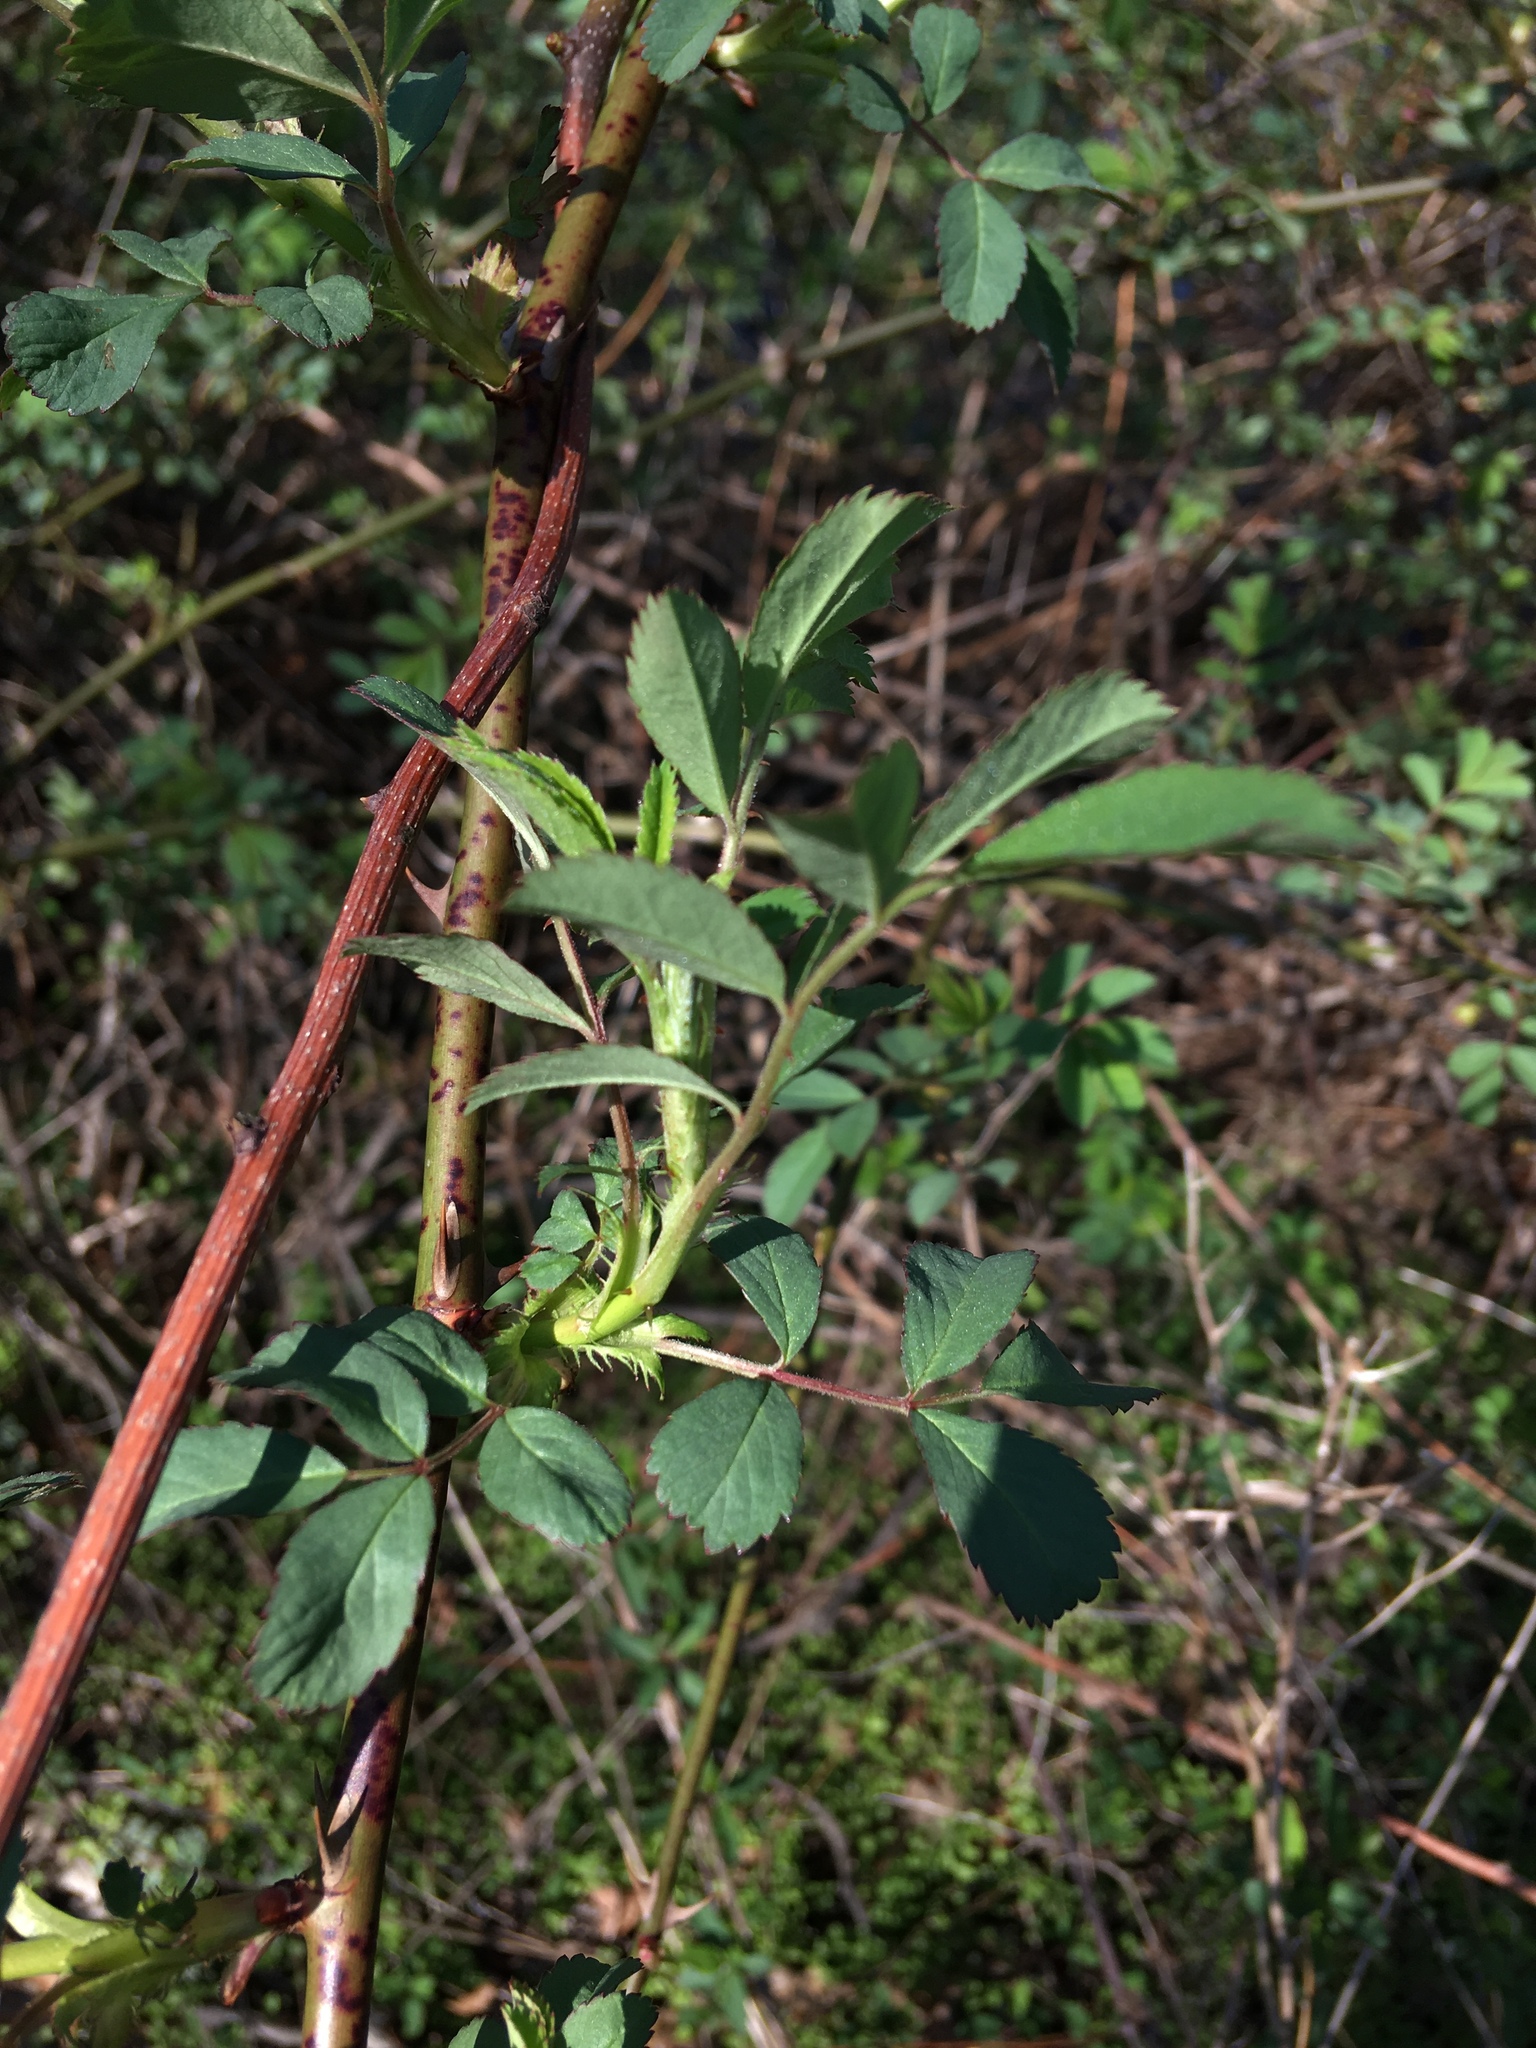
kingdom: Plantae
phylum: Tracheophyta
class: Magnoliopsida
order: Rosales
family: Rosaceae
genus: Rosa
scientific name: Rosa multiflora
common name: Multiflora rose
